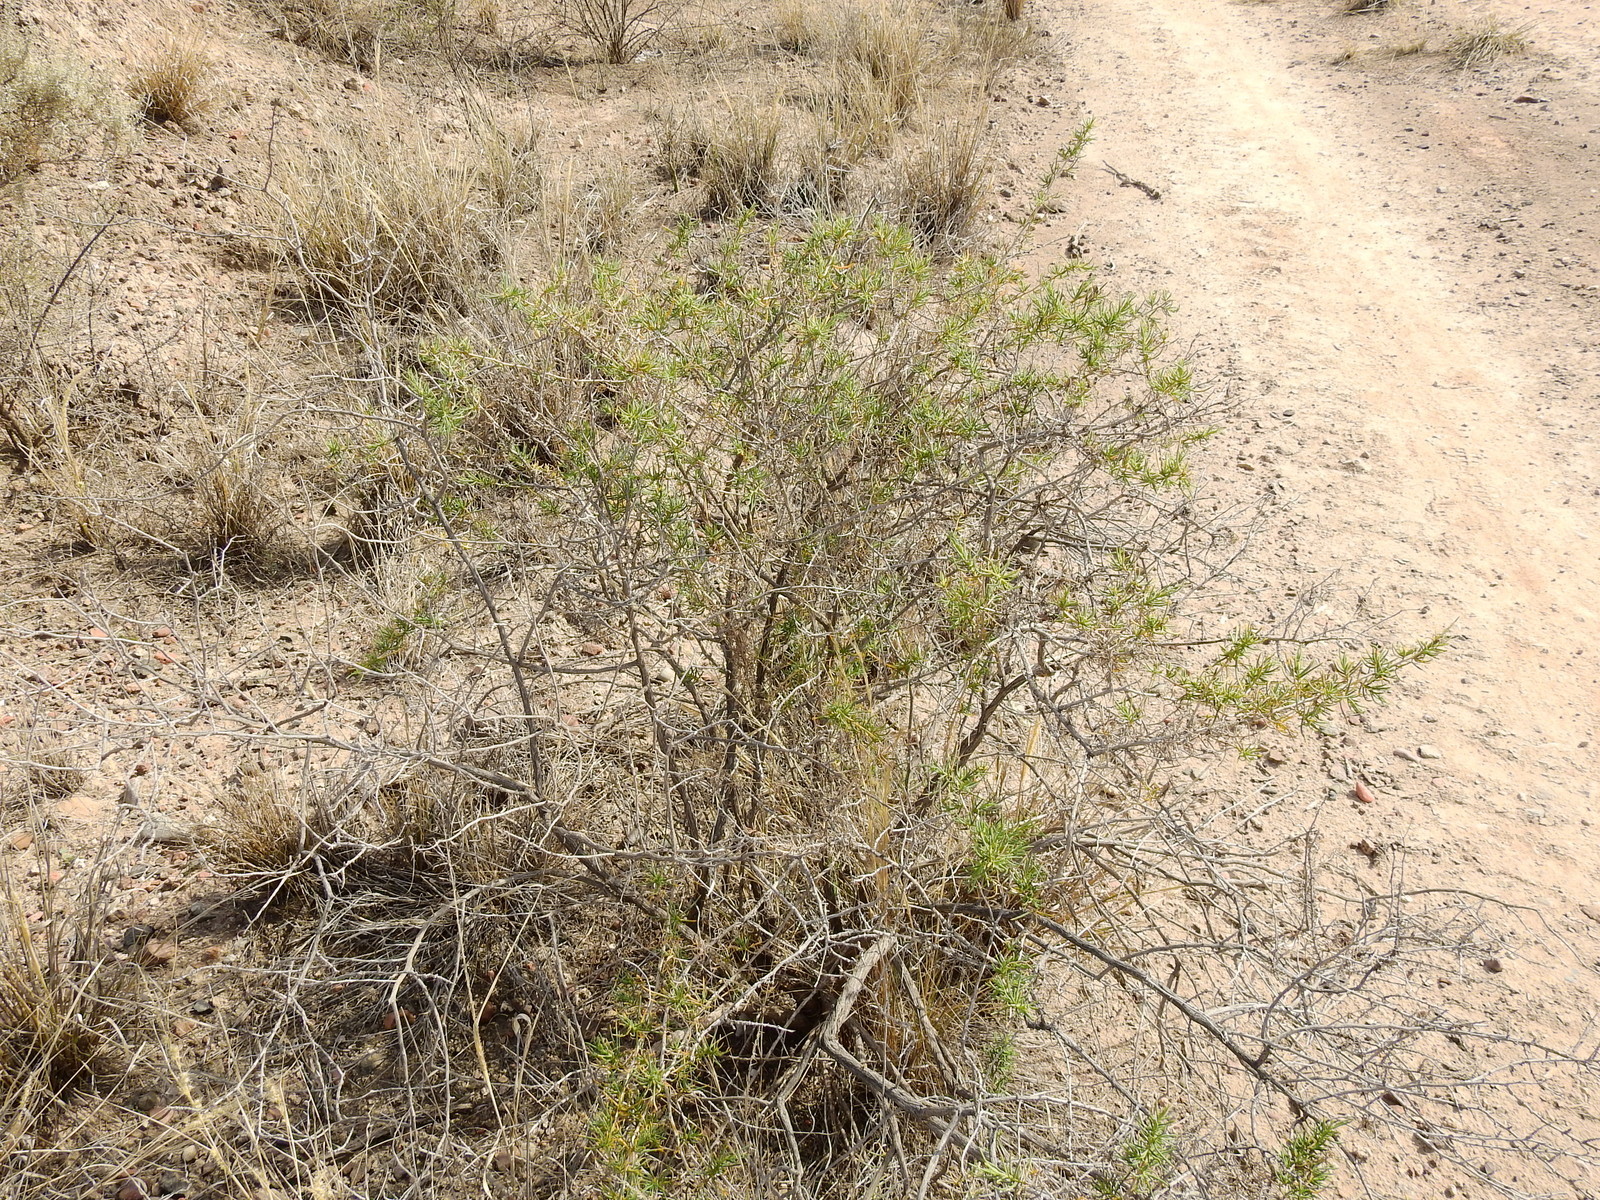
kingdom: Plantae
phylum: Tracheophyta
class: Magnoliopsida
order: Asterales
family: Asteraceae
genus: Senecio
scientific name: Senecio subulatus
